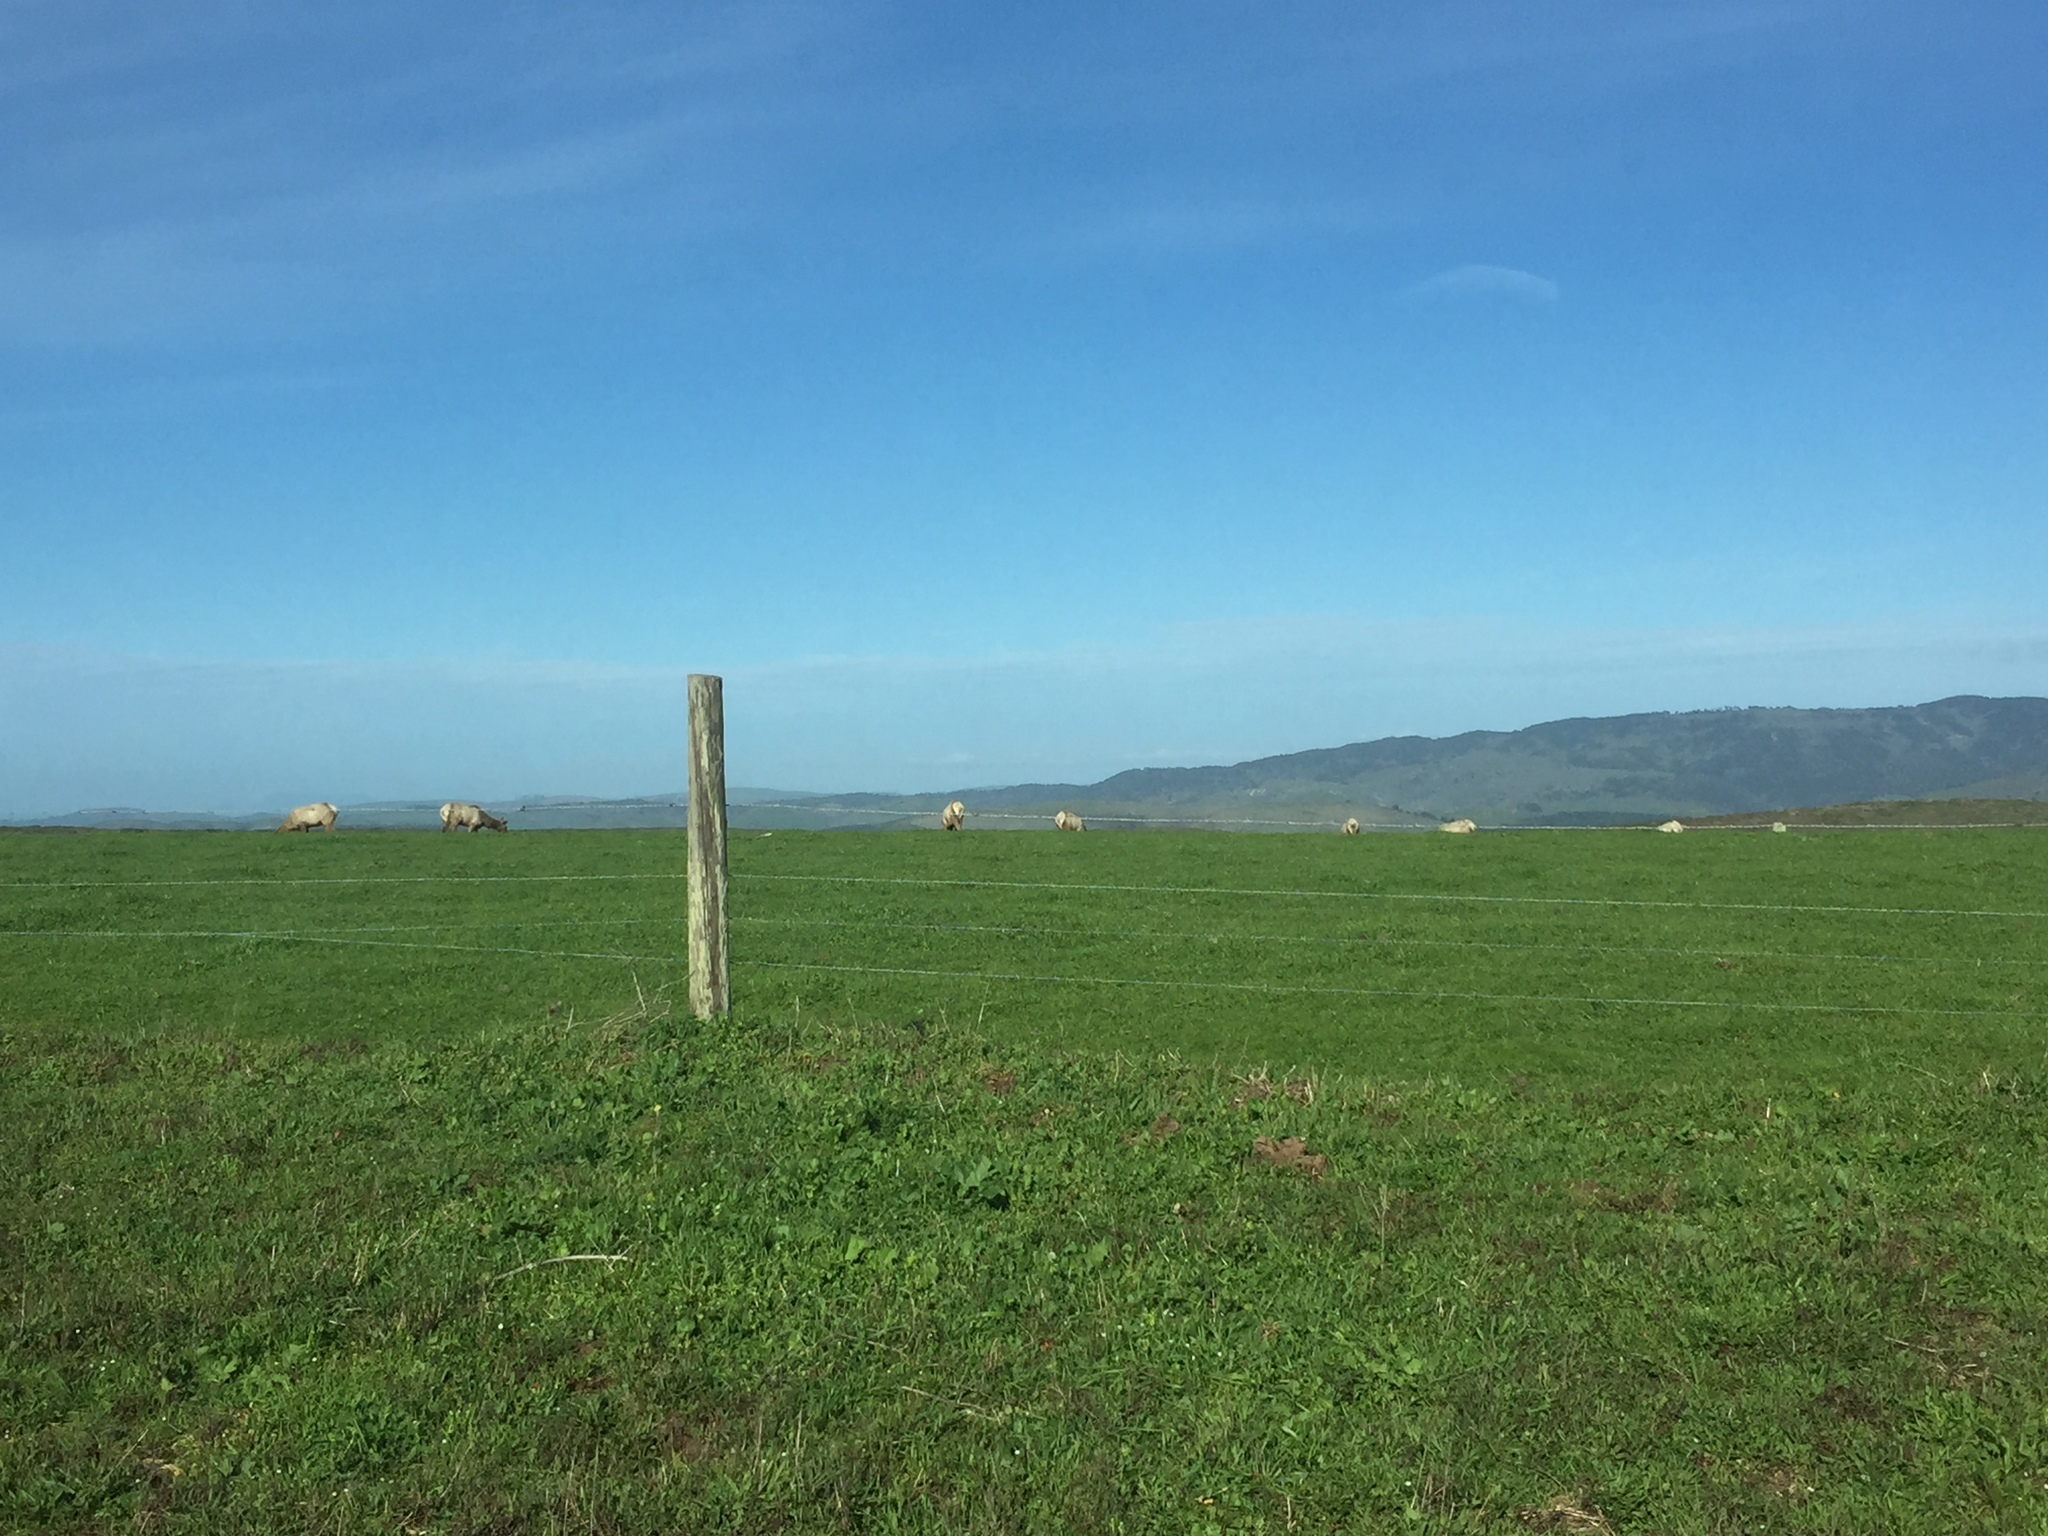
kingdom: Animalia
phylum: Chordata
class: Mammalia
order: Artiodactyla
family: Cervidae
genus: Cervus
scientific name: Cervus elaphus
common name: Red deer
